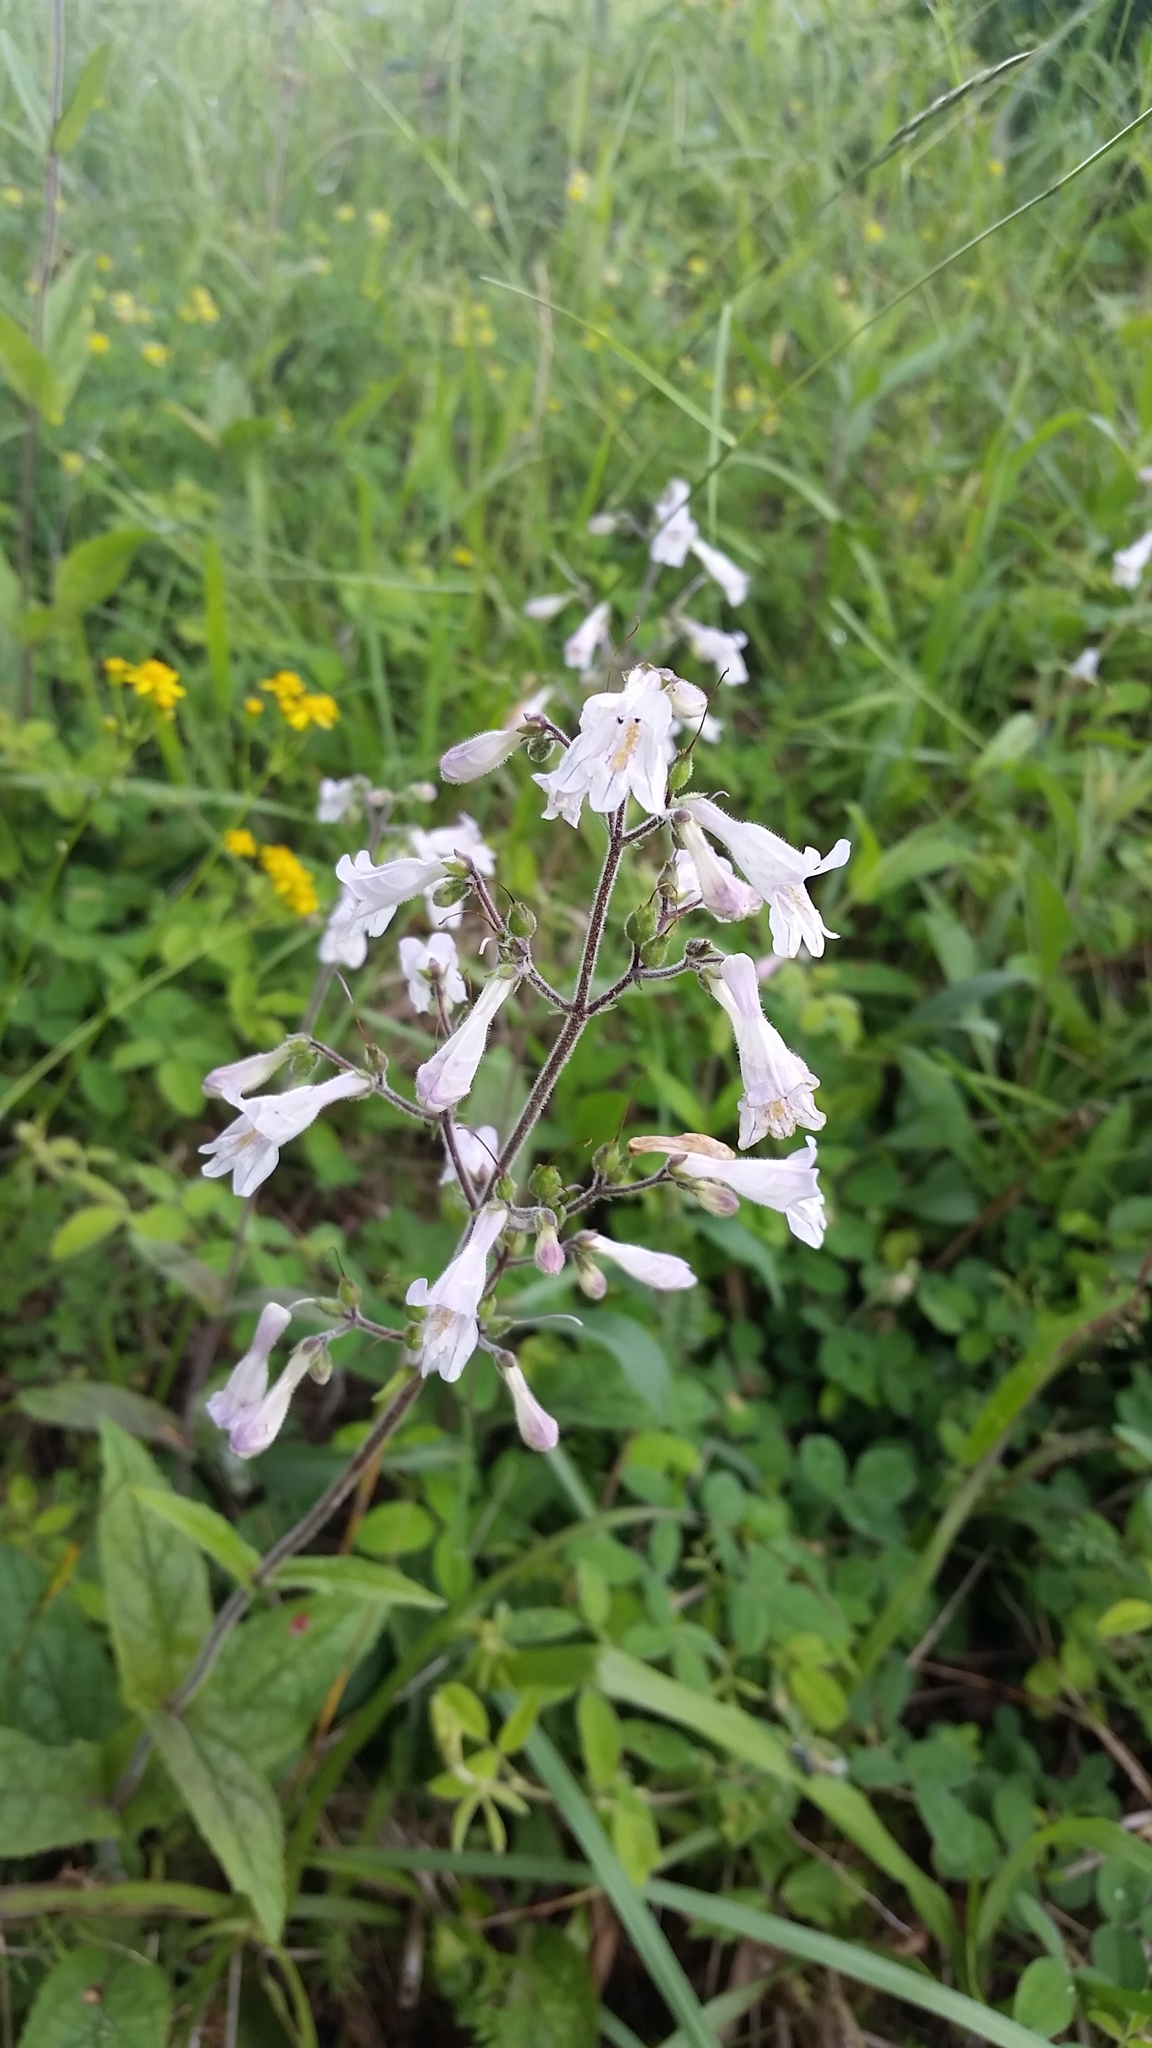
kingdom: Plantae
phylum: Tracheophyta
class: Magnoliopsida
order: Lamiales
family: Plantaginaceae
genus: Penstemon
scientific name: Penstemon brevisepalus
